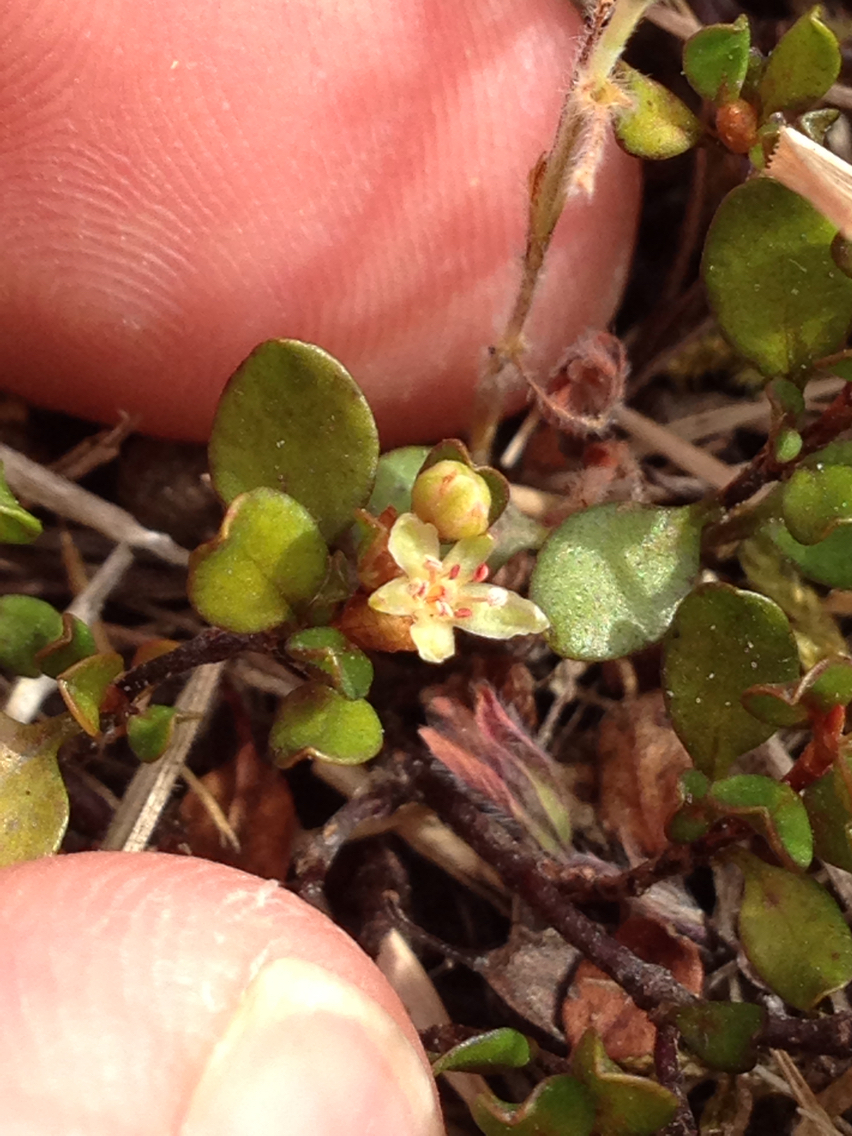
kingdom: Plantae
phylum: Tracheophyta
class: Magnoliopsida
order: Caryophyllales
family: Polygonaceae
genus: Muehlenbeckia
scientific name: Muehlenbeckia axillaris
